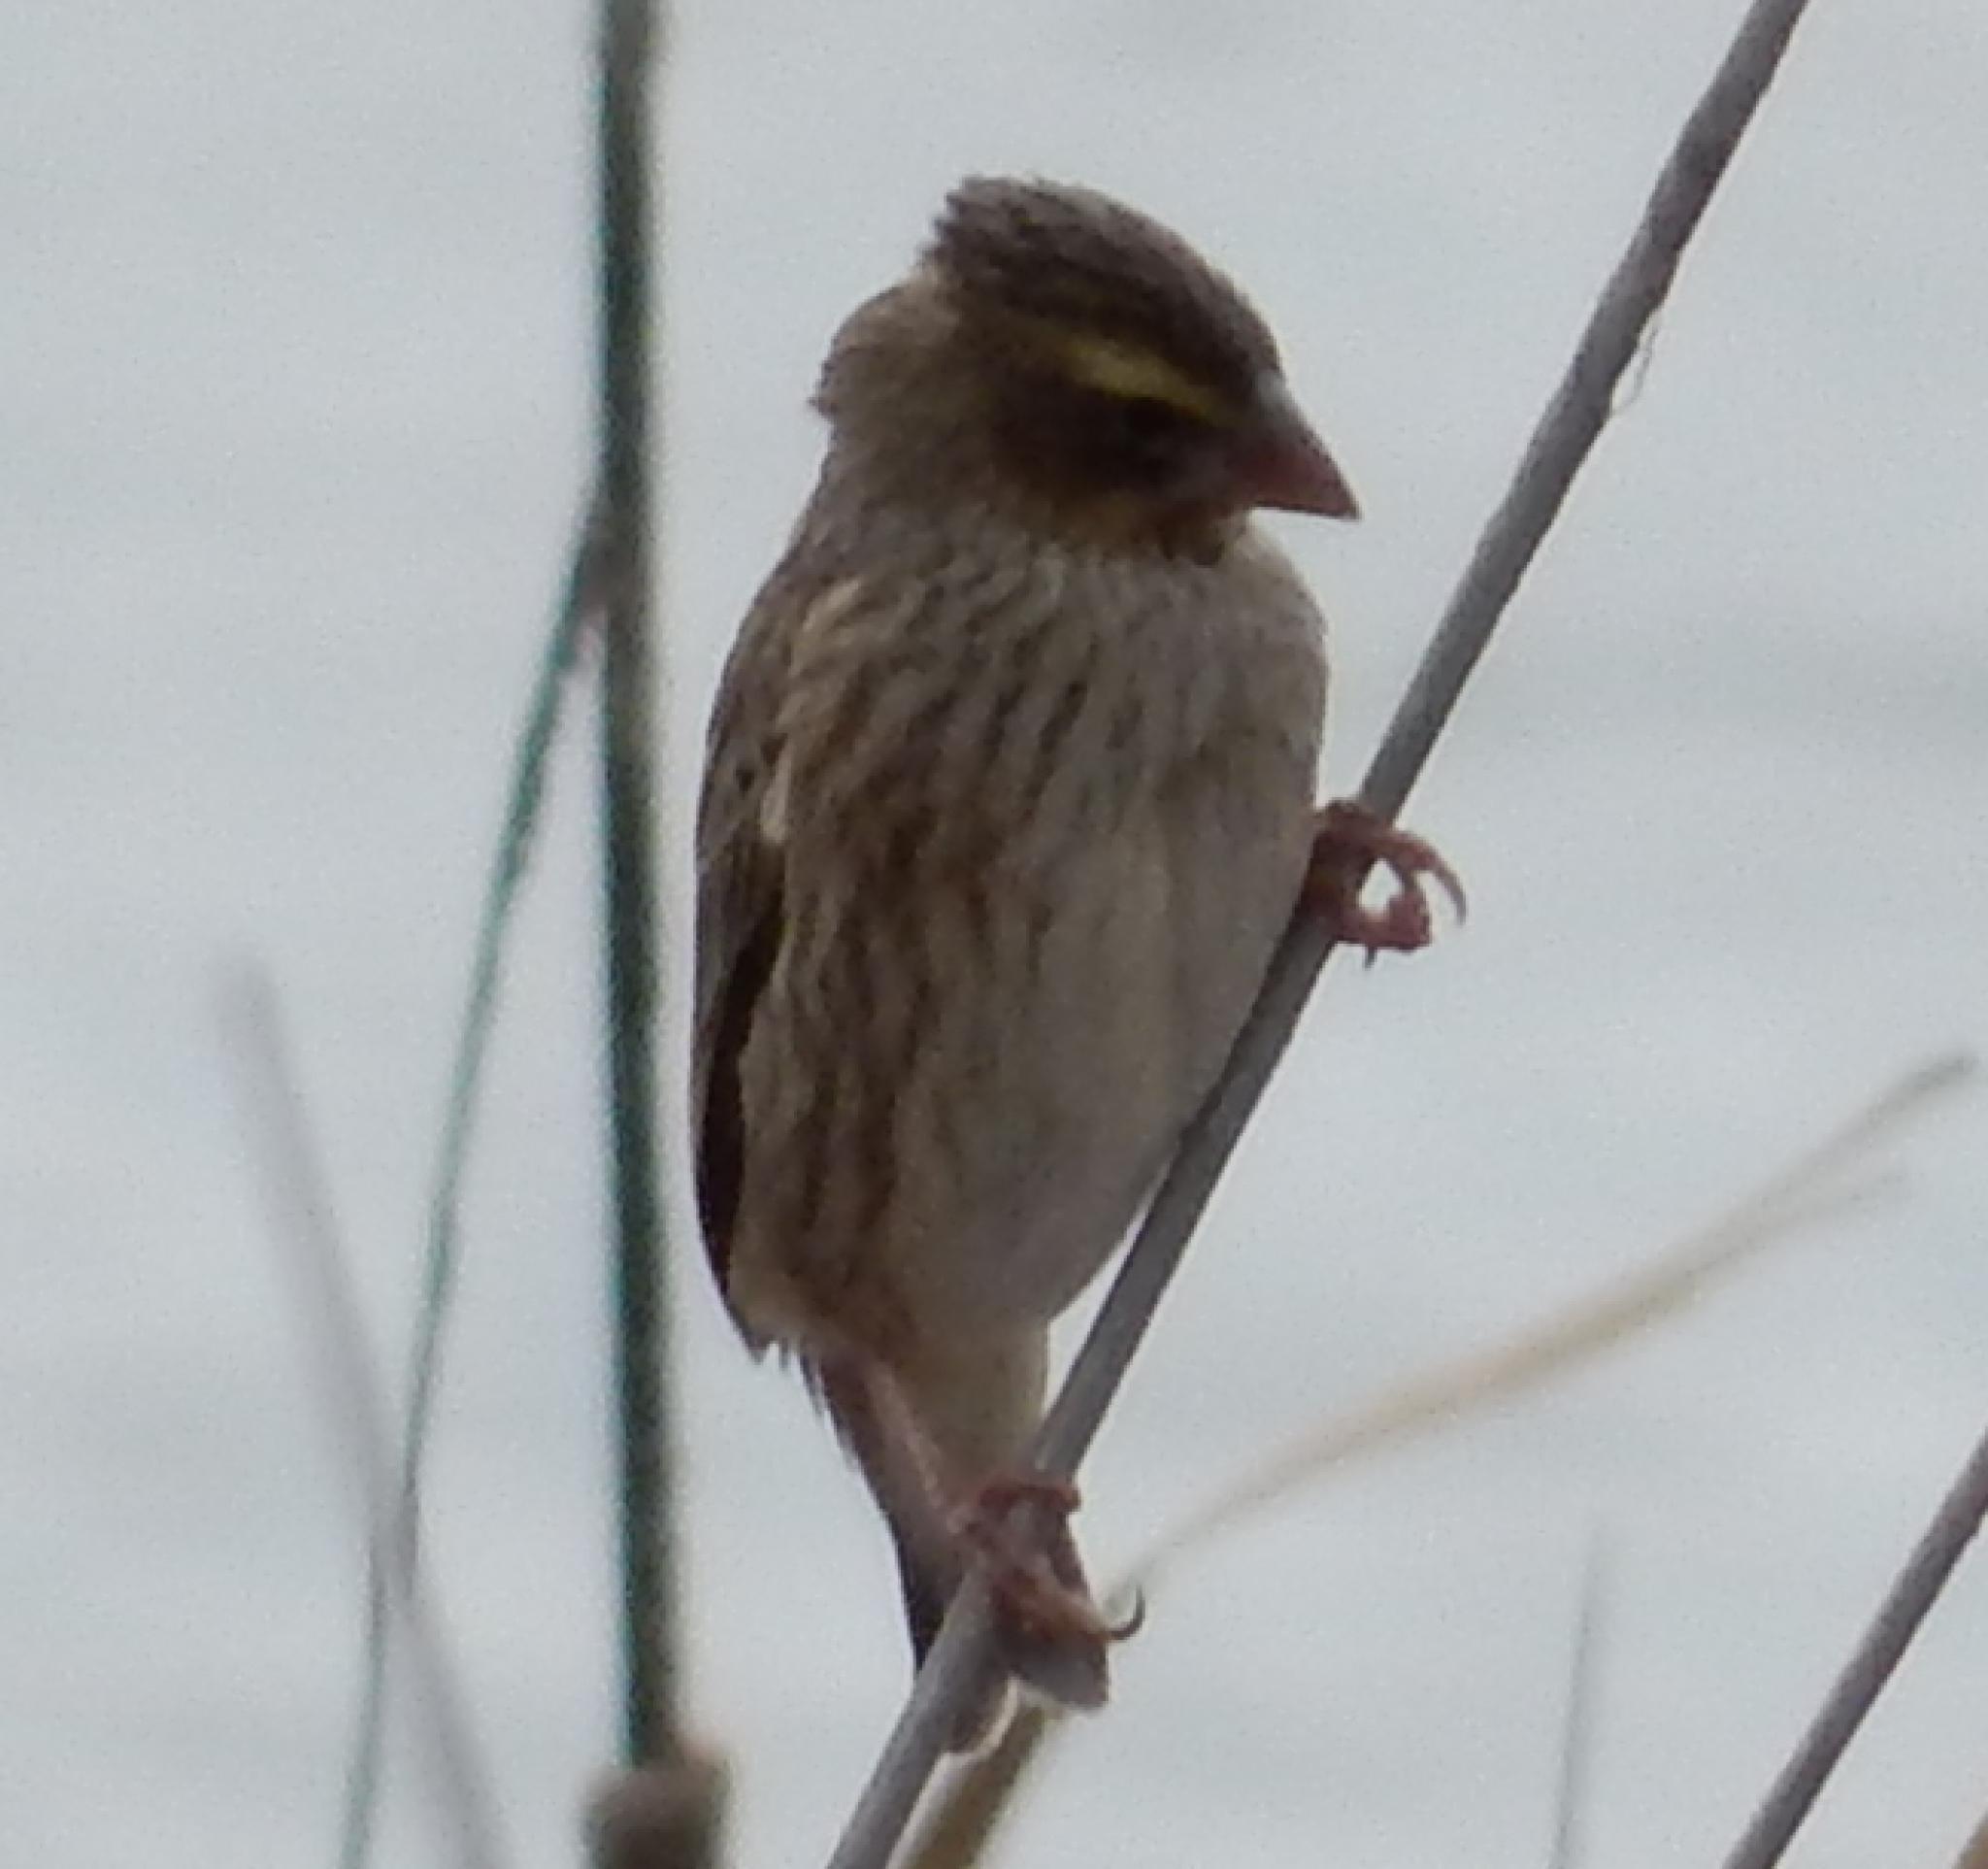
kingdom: Animalia
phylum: Chordata
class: Aves
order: Passeriformes
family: Ploceidae
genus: Euplectes
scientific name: Euplectes orix
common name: Southern red bishop
